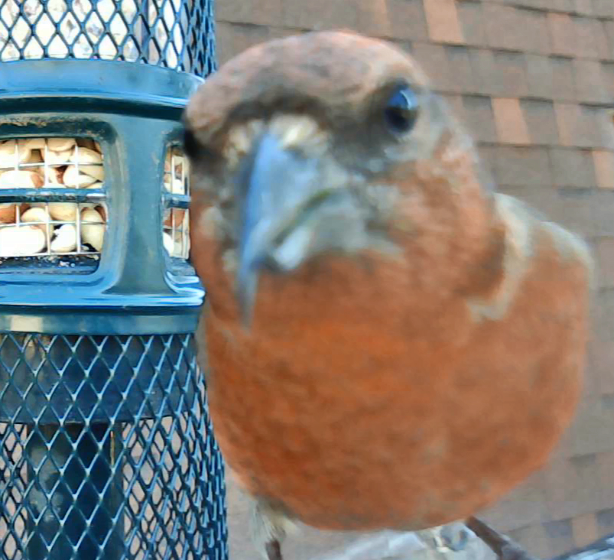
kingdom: Animalia
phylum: Chordata
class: Aves
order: Passeriformes
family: Fringillidae
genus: Loxia
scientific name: Loxia curvirostra
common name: Red crossbill
